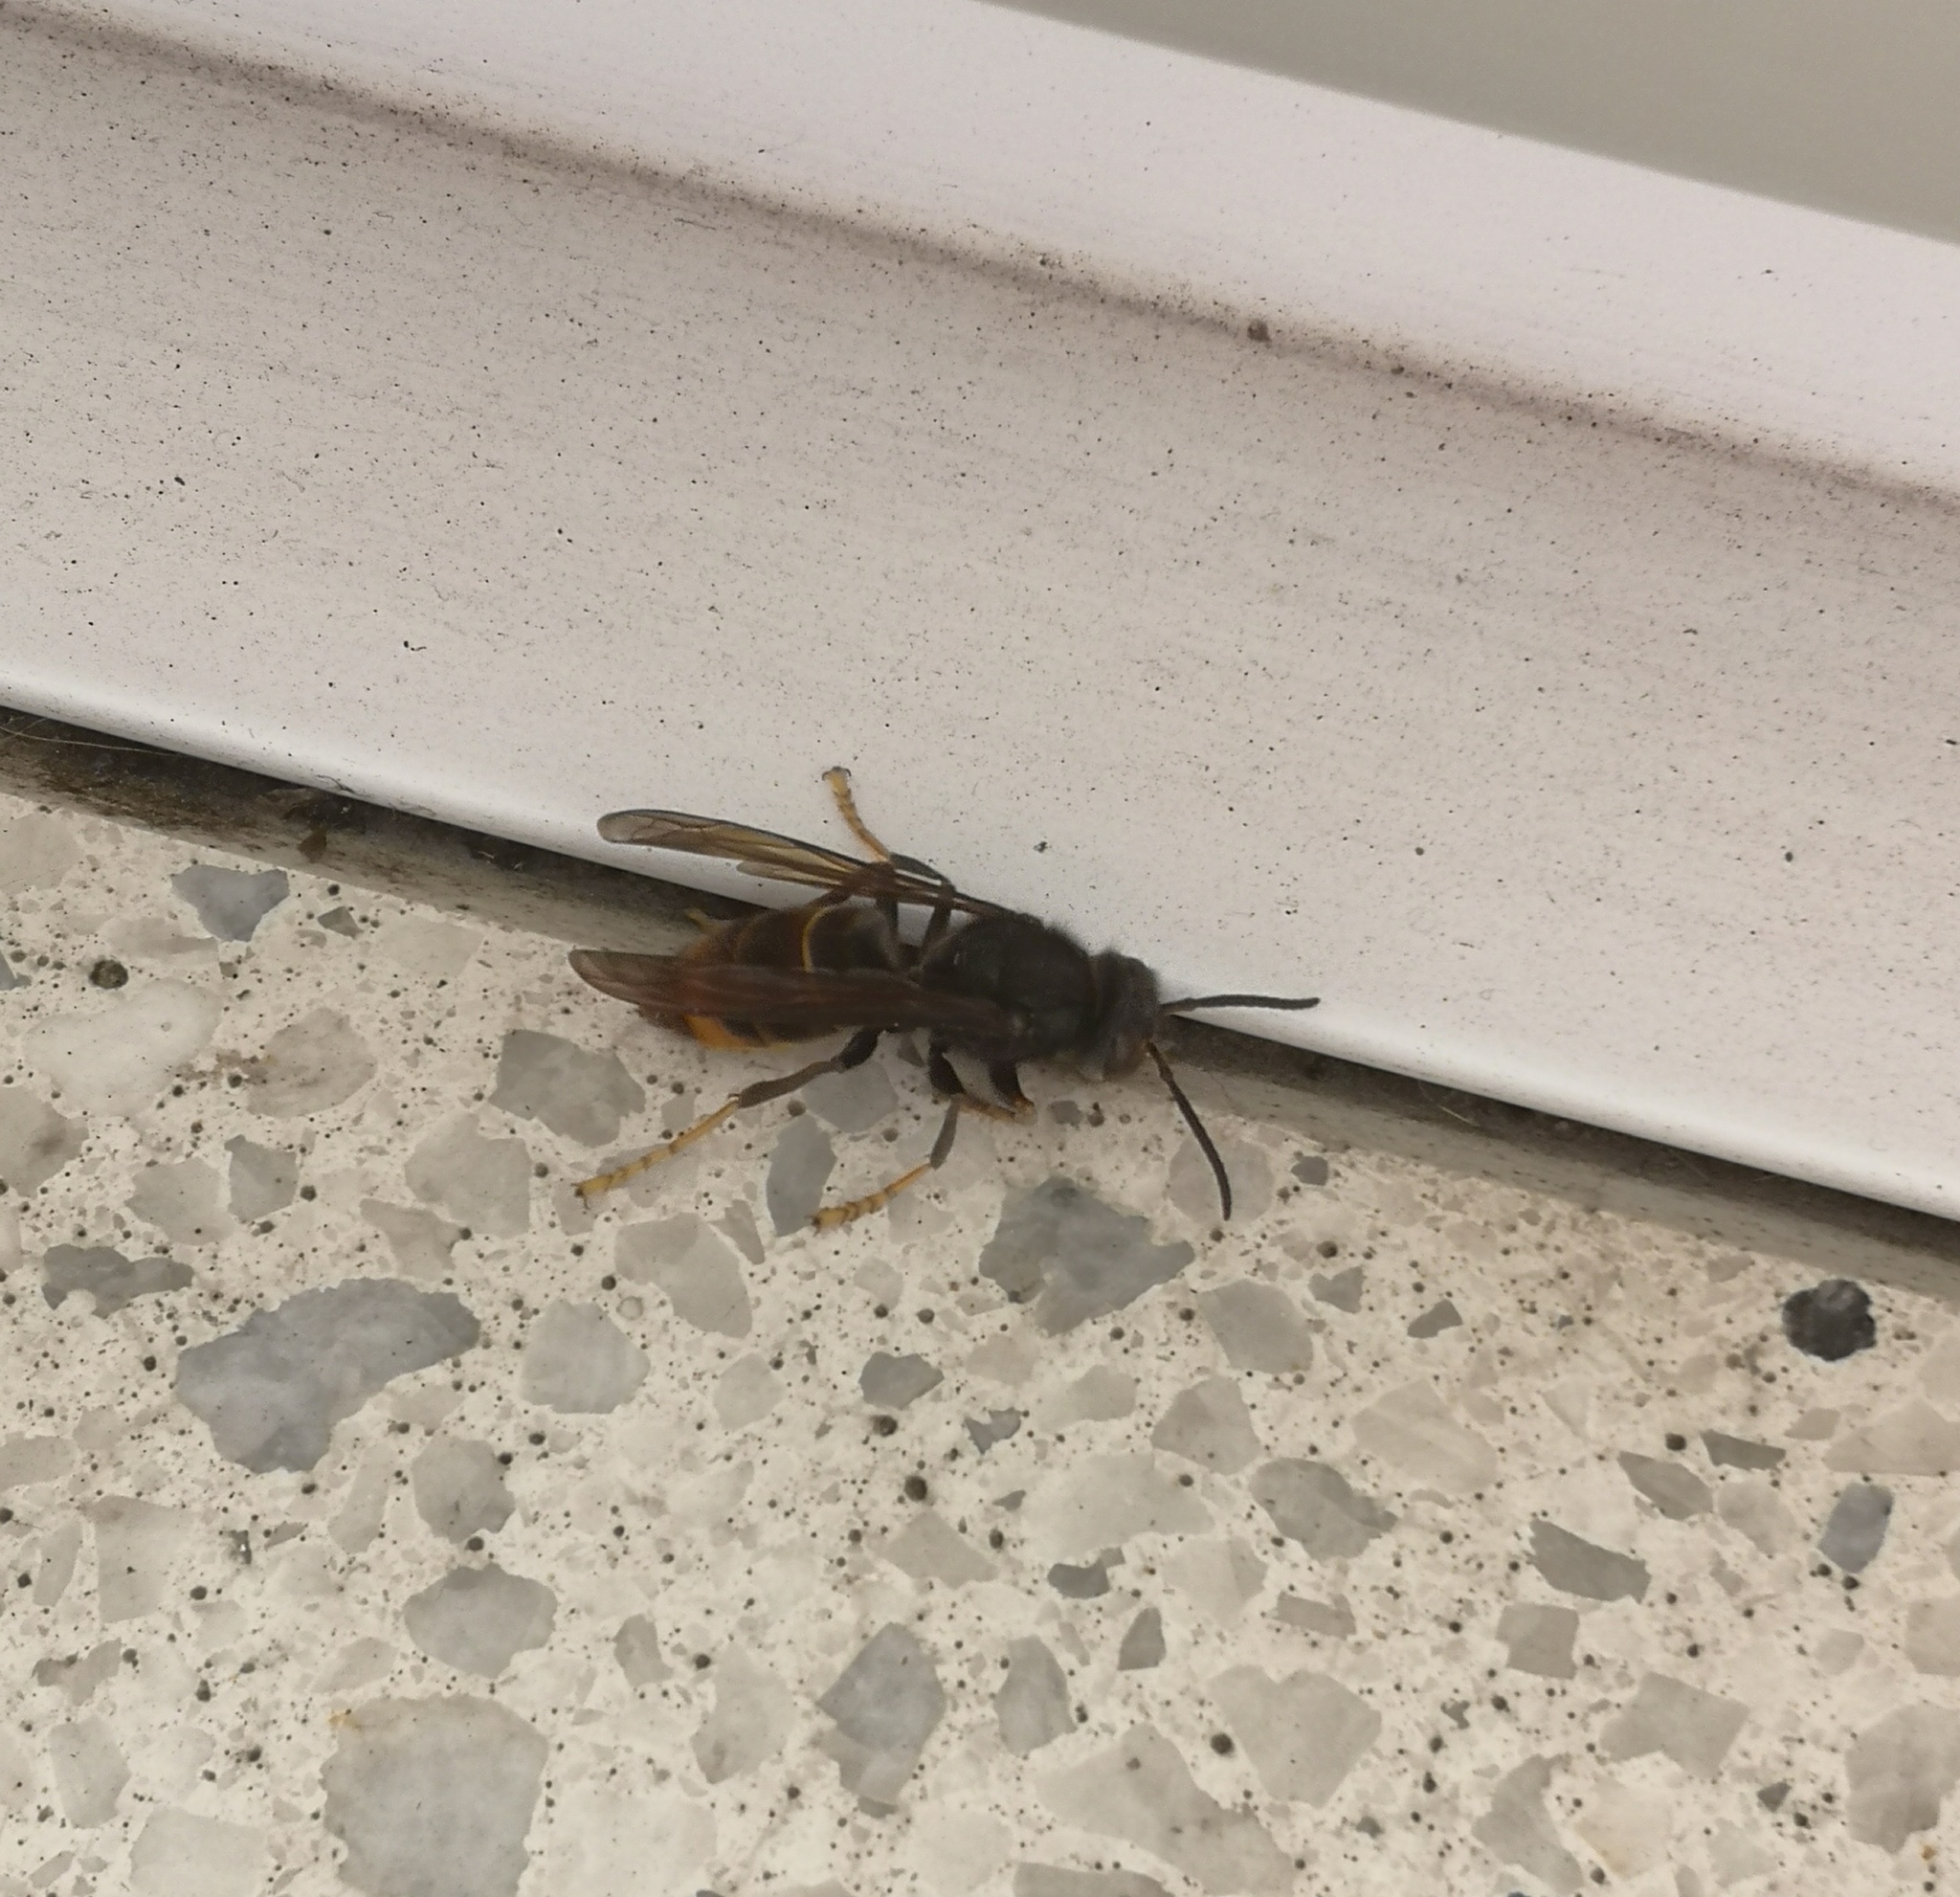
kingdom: Animalia
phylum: Arthropoda
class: Insecta
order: Hymenoptera
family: Vespidae
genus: Vespa
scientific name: Vespa velutina
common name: Asian hornet
